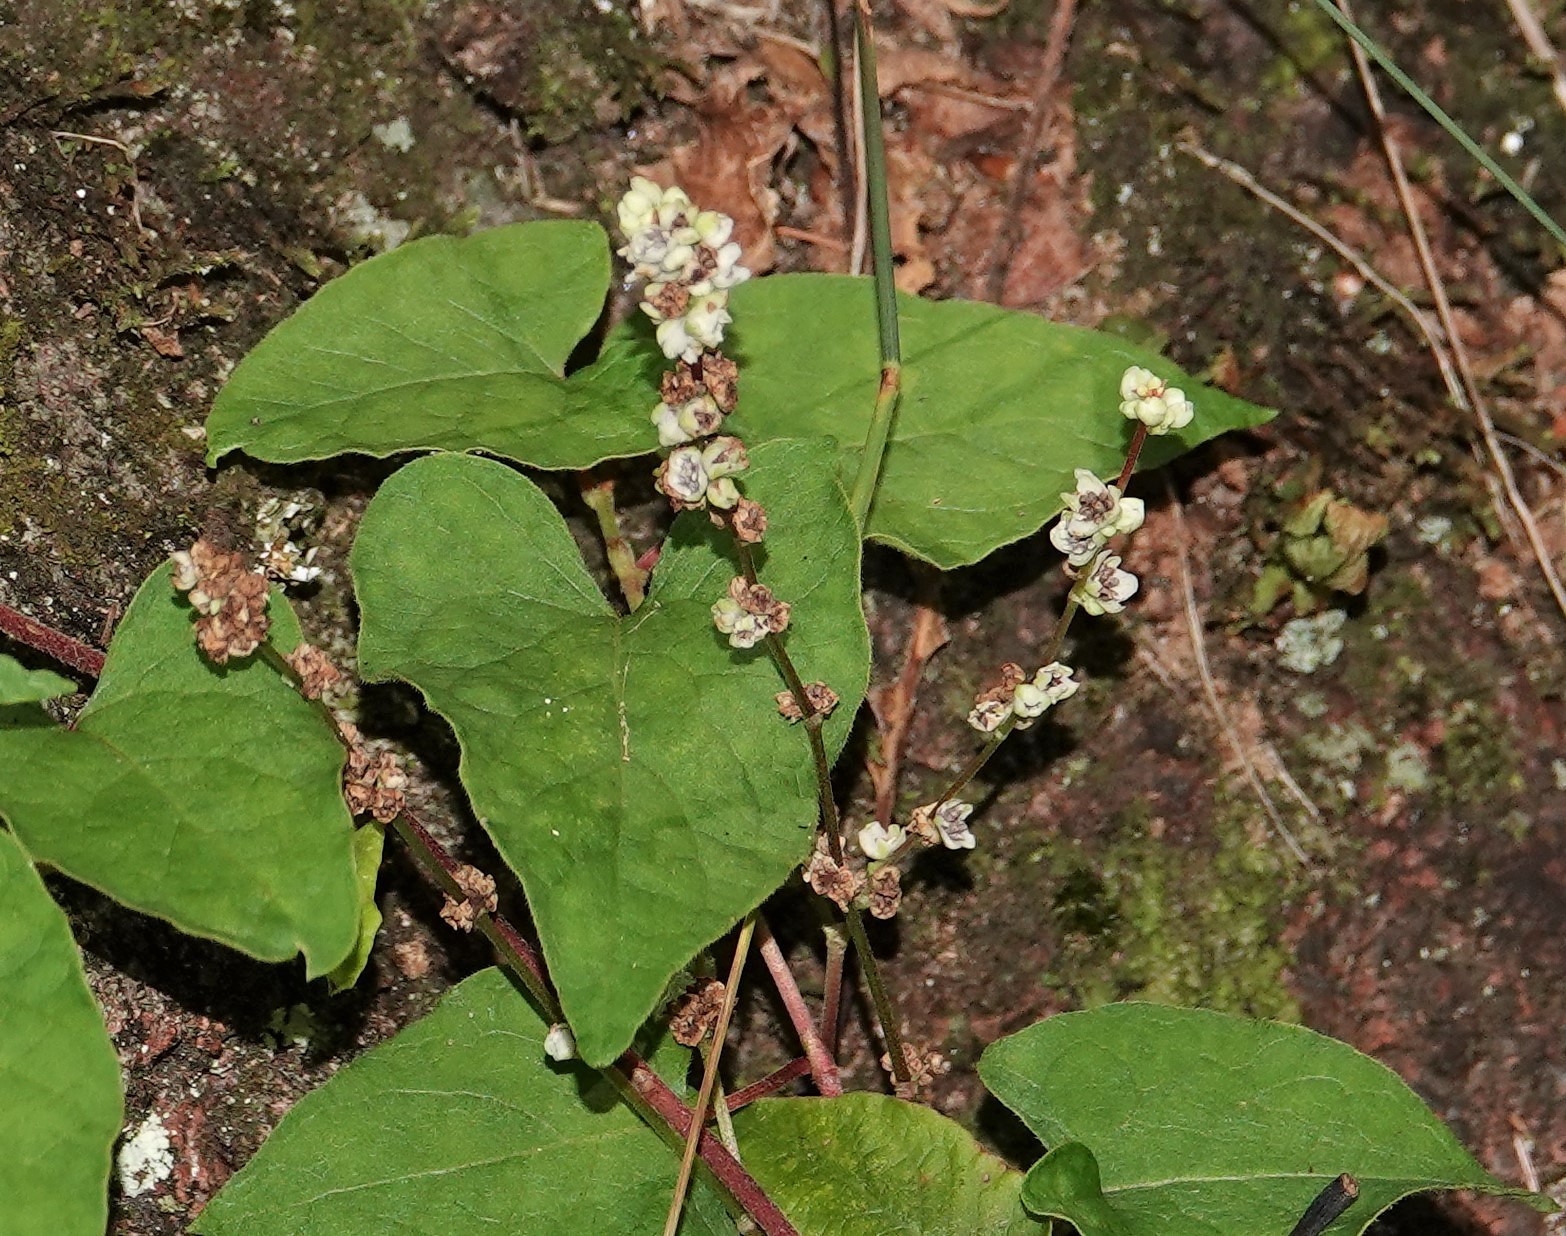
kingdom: Plantae
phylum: Tracheophyta
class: Magnoliopsida
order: Caryophyllales
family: Polygonaceae
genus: Parogonum
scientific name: Parogonum ciliinode
